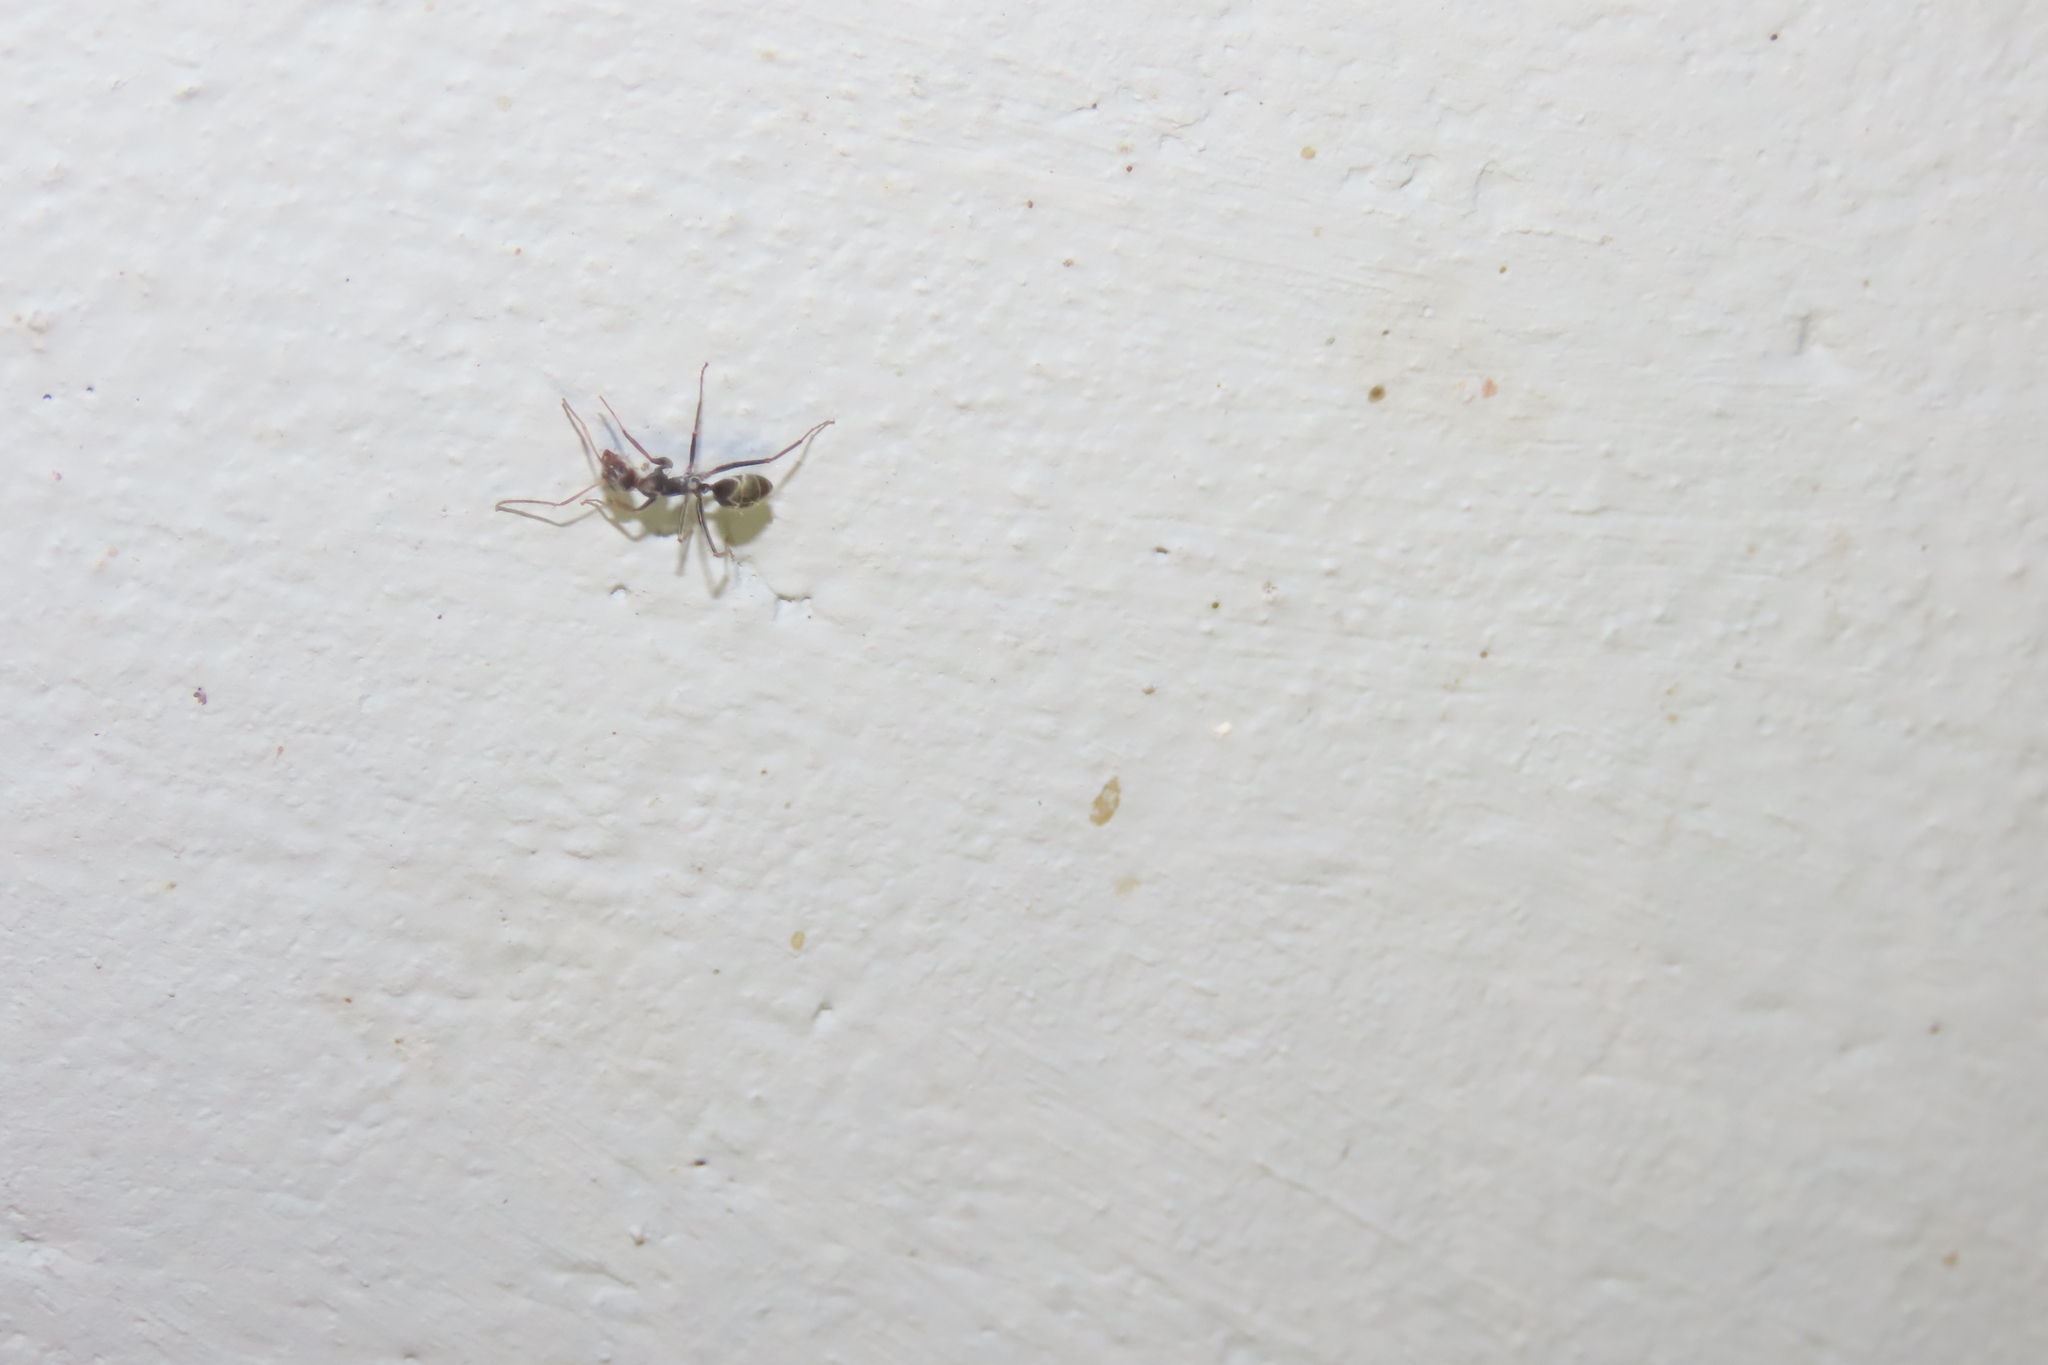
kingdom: Animalia
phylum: Arthropoda
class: Insecta
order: Hymenoptera
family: Formicidae
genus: Camponotus
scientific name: Camponotus rufoglaucus
